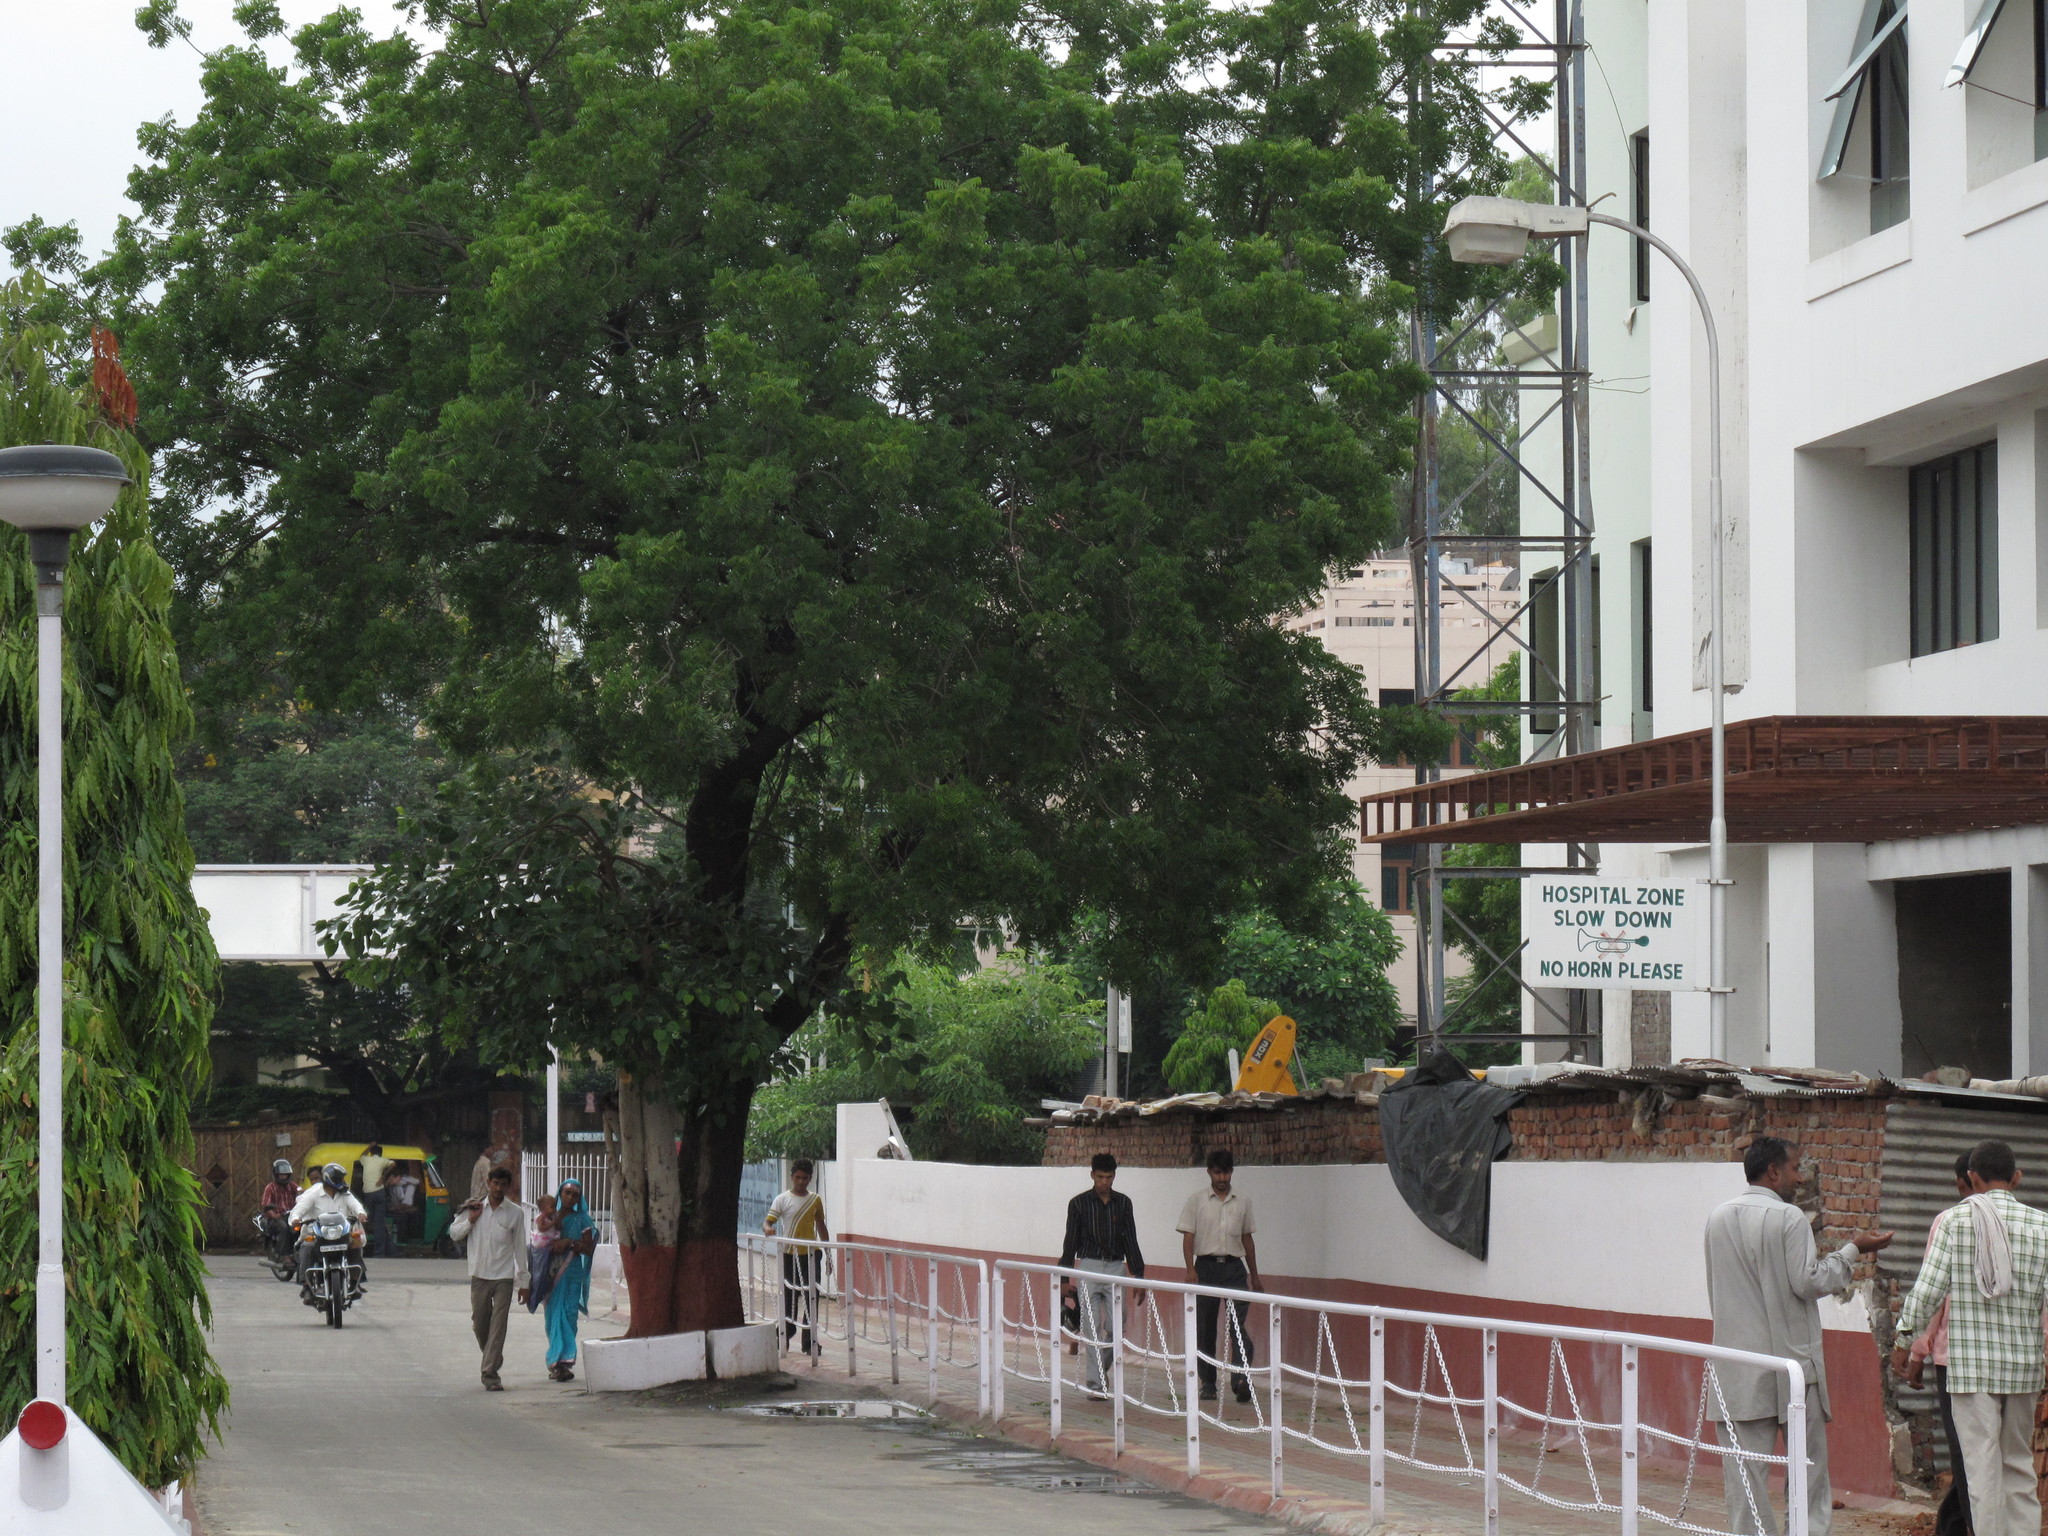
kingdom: Plantae
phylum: Tracheophyta
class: Magnoliopsida
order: Rosales
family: Moraceae
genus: Ficus
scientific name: Ficus religiosa
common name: Bodhi tree
